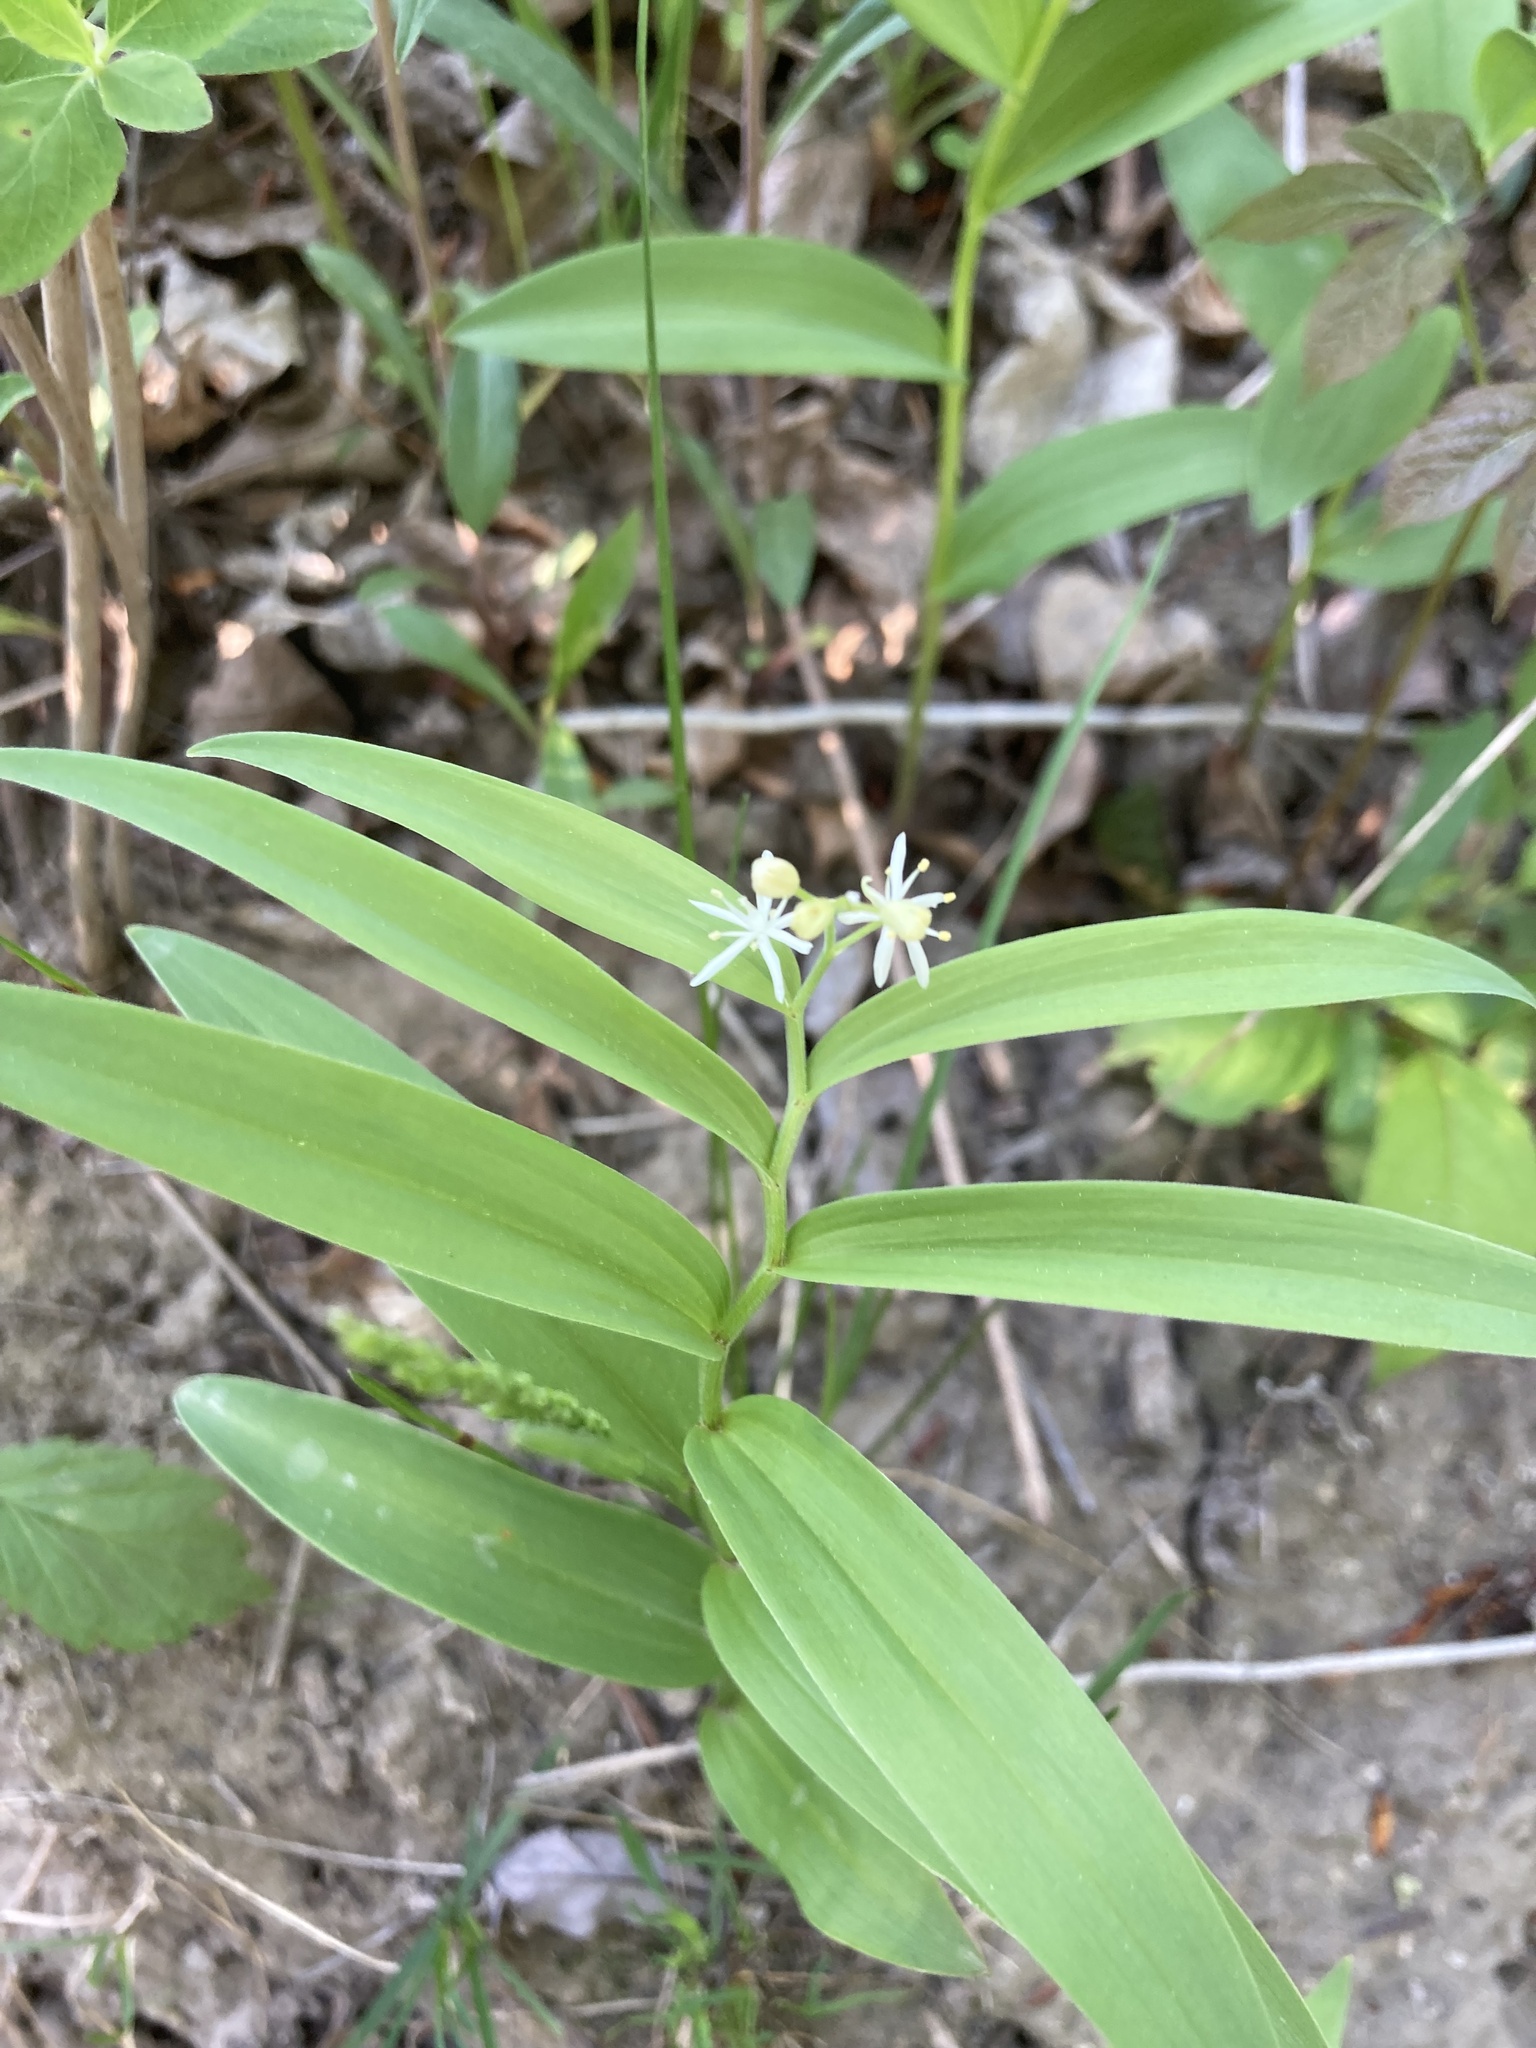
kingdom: Plantae
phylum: Tracheophyta
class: Liliopsida
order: Asparagales
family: Asparagaceae
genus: Maianthemum
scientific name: Maianthemum stellatum
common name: Little false solomon's seal
